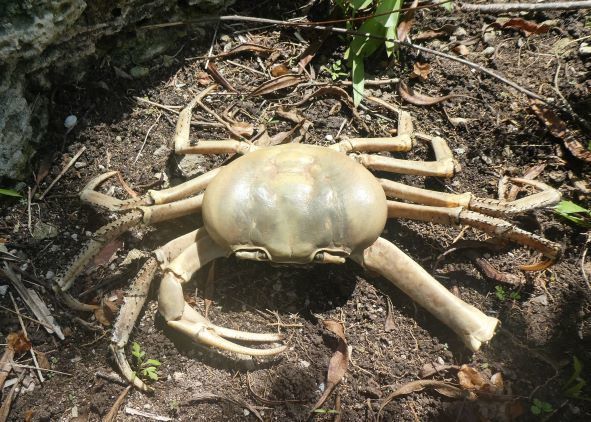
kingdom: Animalia
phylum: Arthropoda
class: Malacostraca
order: Decapoda
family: Gecarcinidae
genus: Cardisoma
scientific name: Cardisoma guanhumi
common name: Great land crab
